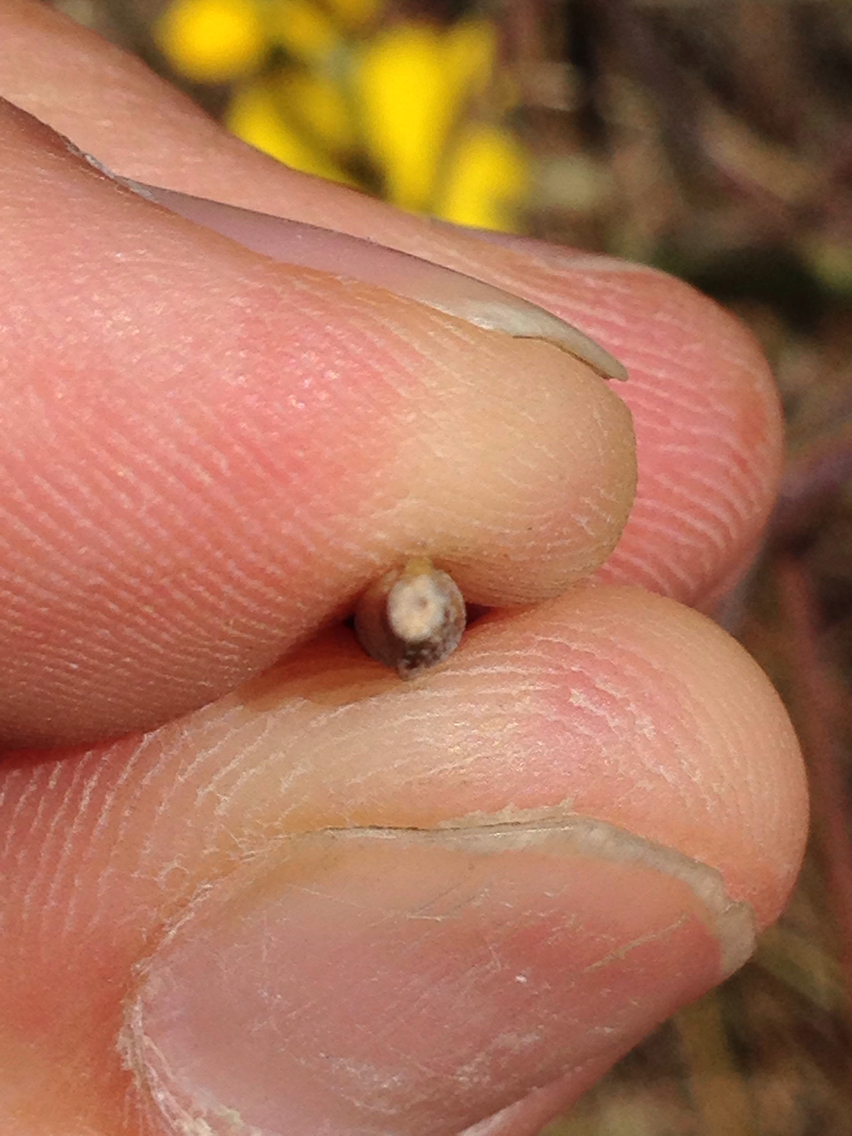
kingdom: Plantae
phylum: Tracheophyta
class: Magnoliopsida
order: Brassicales
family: Brassicaceae
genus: Erysimum
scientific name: Erysimum capitatum
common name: Western wallflower
